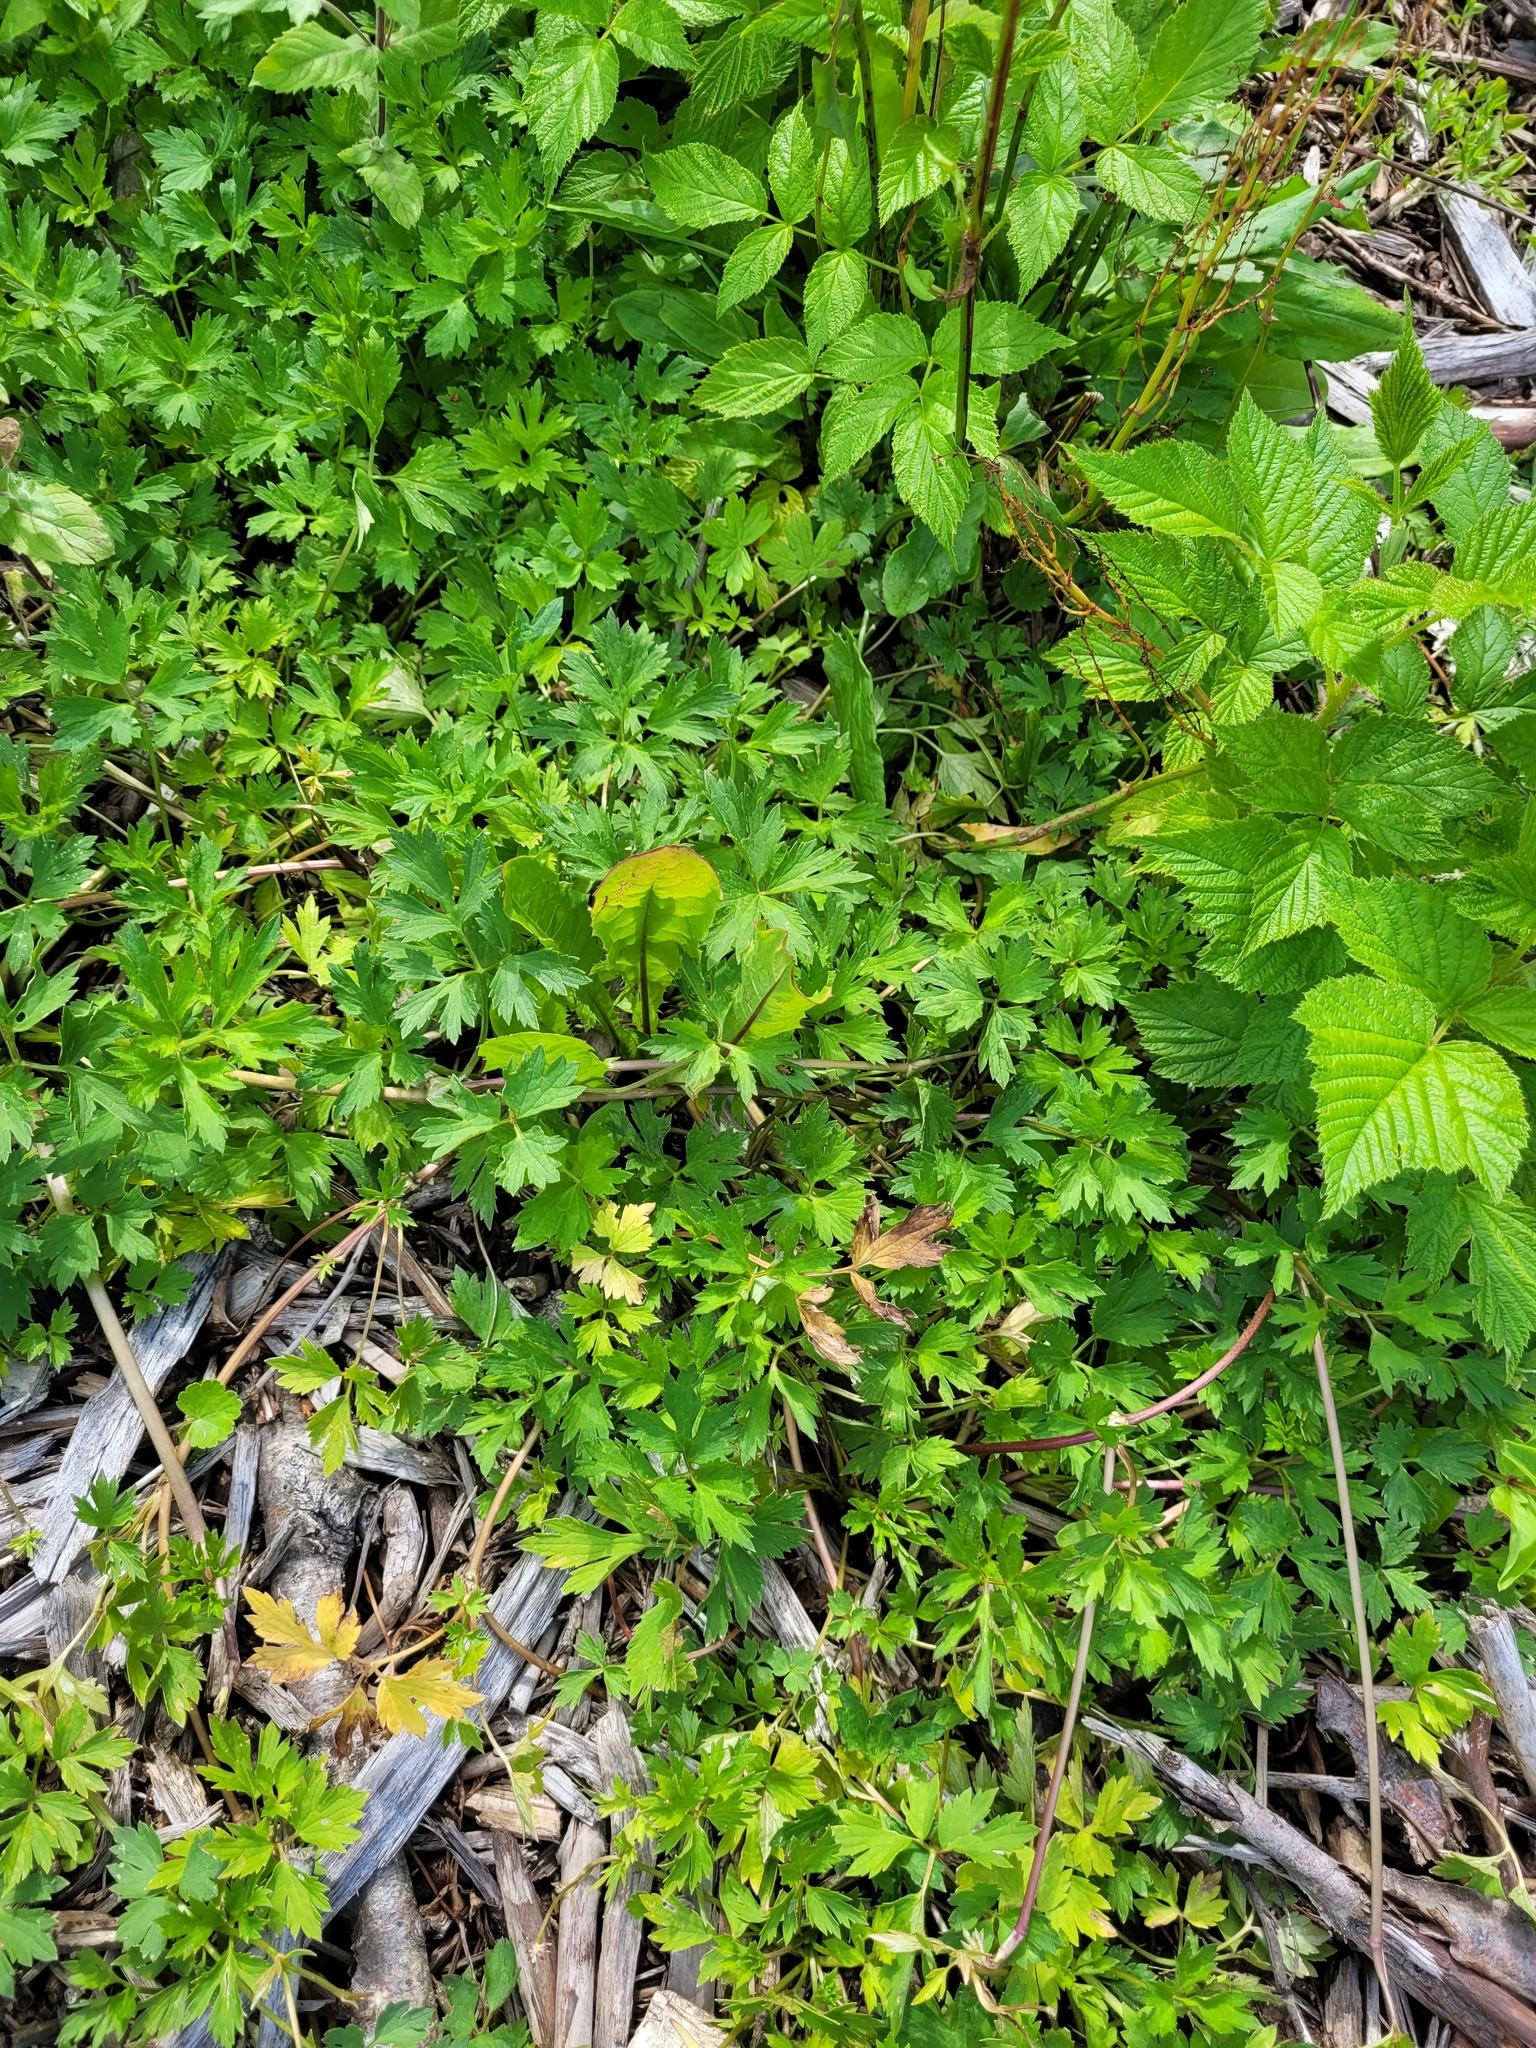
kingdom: Plantae
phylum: Tracheophyta
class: Magnoliopsida
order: Ranunculales
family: Ranunculaceae
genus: Ranunculus
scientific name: Ranunculus repens
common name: Creeping buttercup
